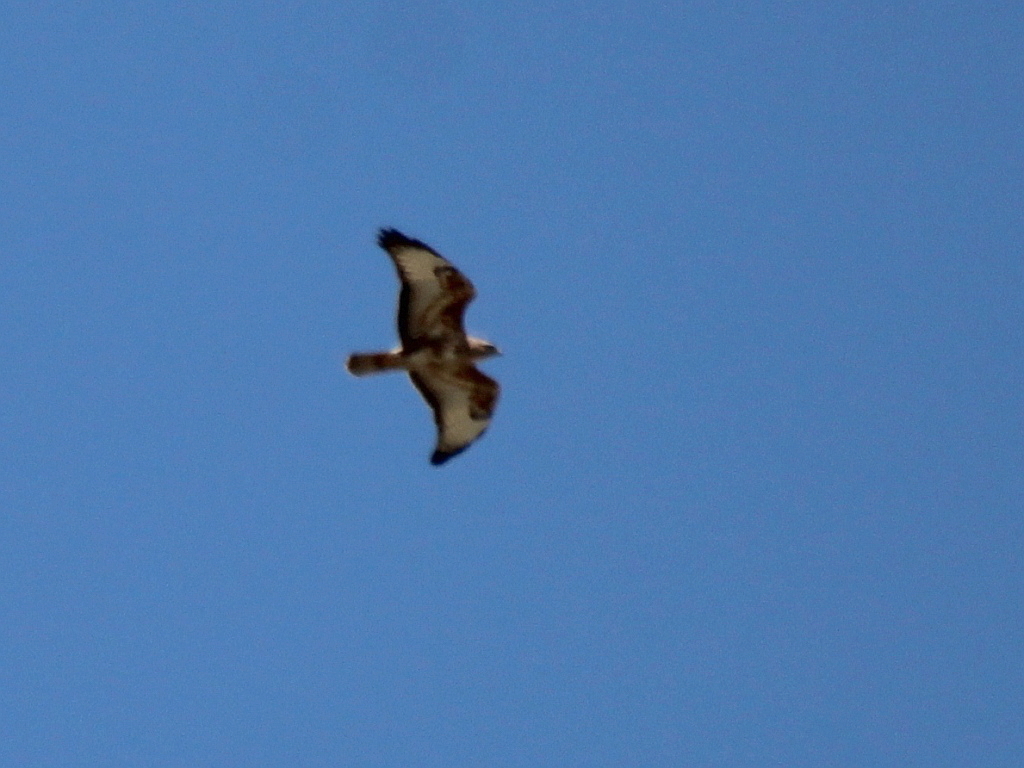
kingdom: Animalia
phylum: Chordata
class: Aves
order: Accipitriformes
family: Accipitridae
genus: Buteo
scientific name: Buteo buteo
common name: Common buzzard
